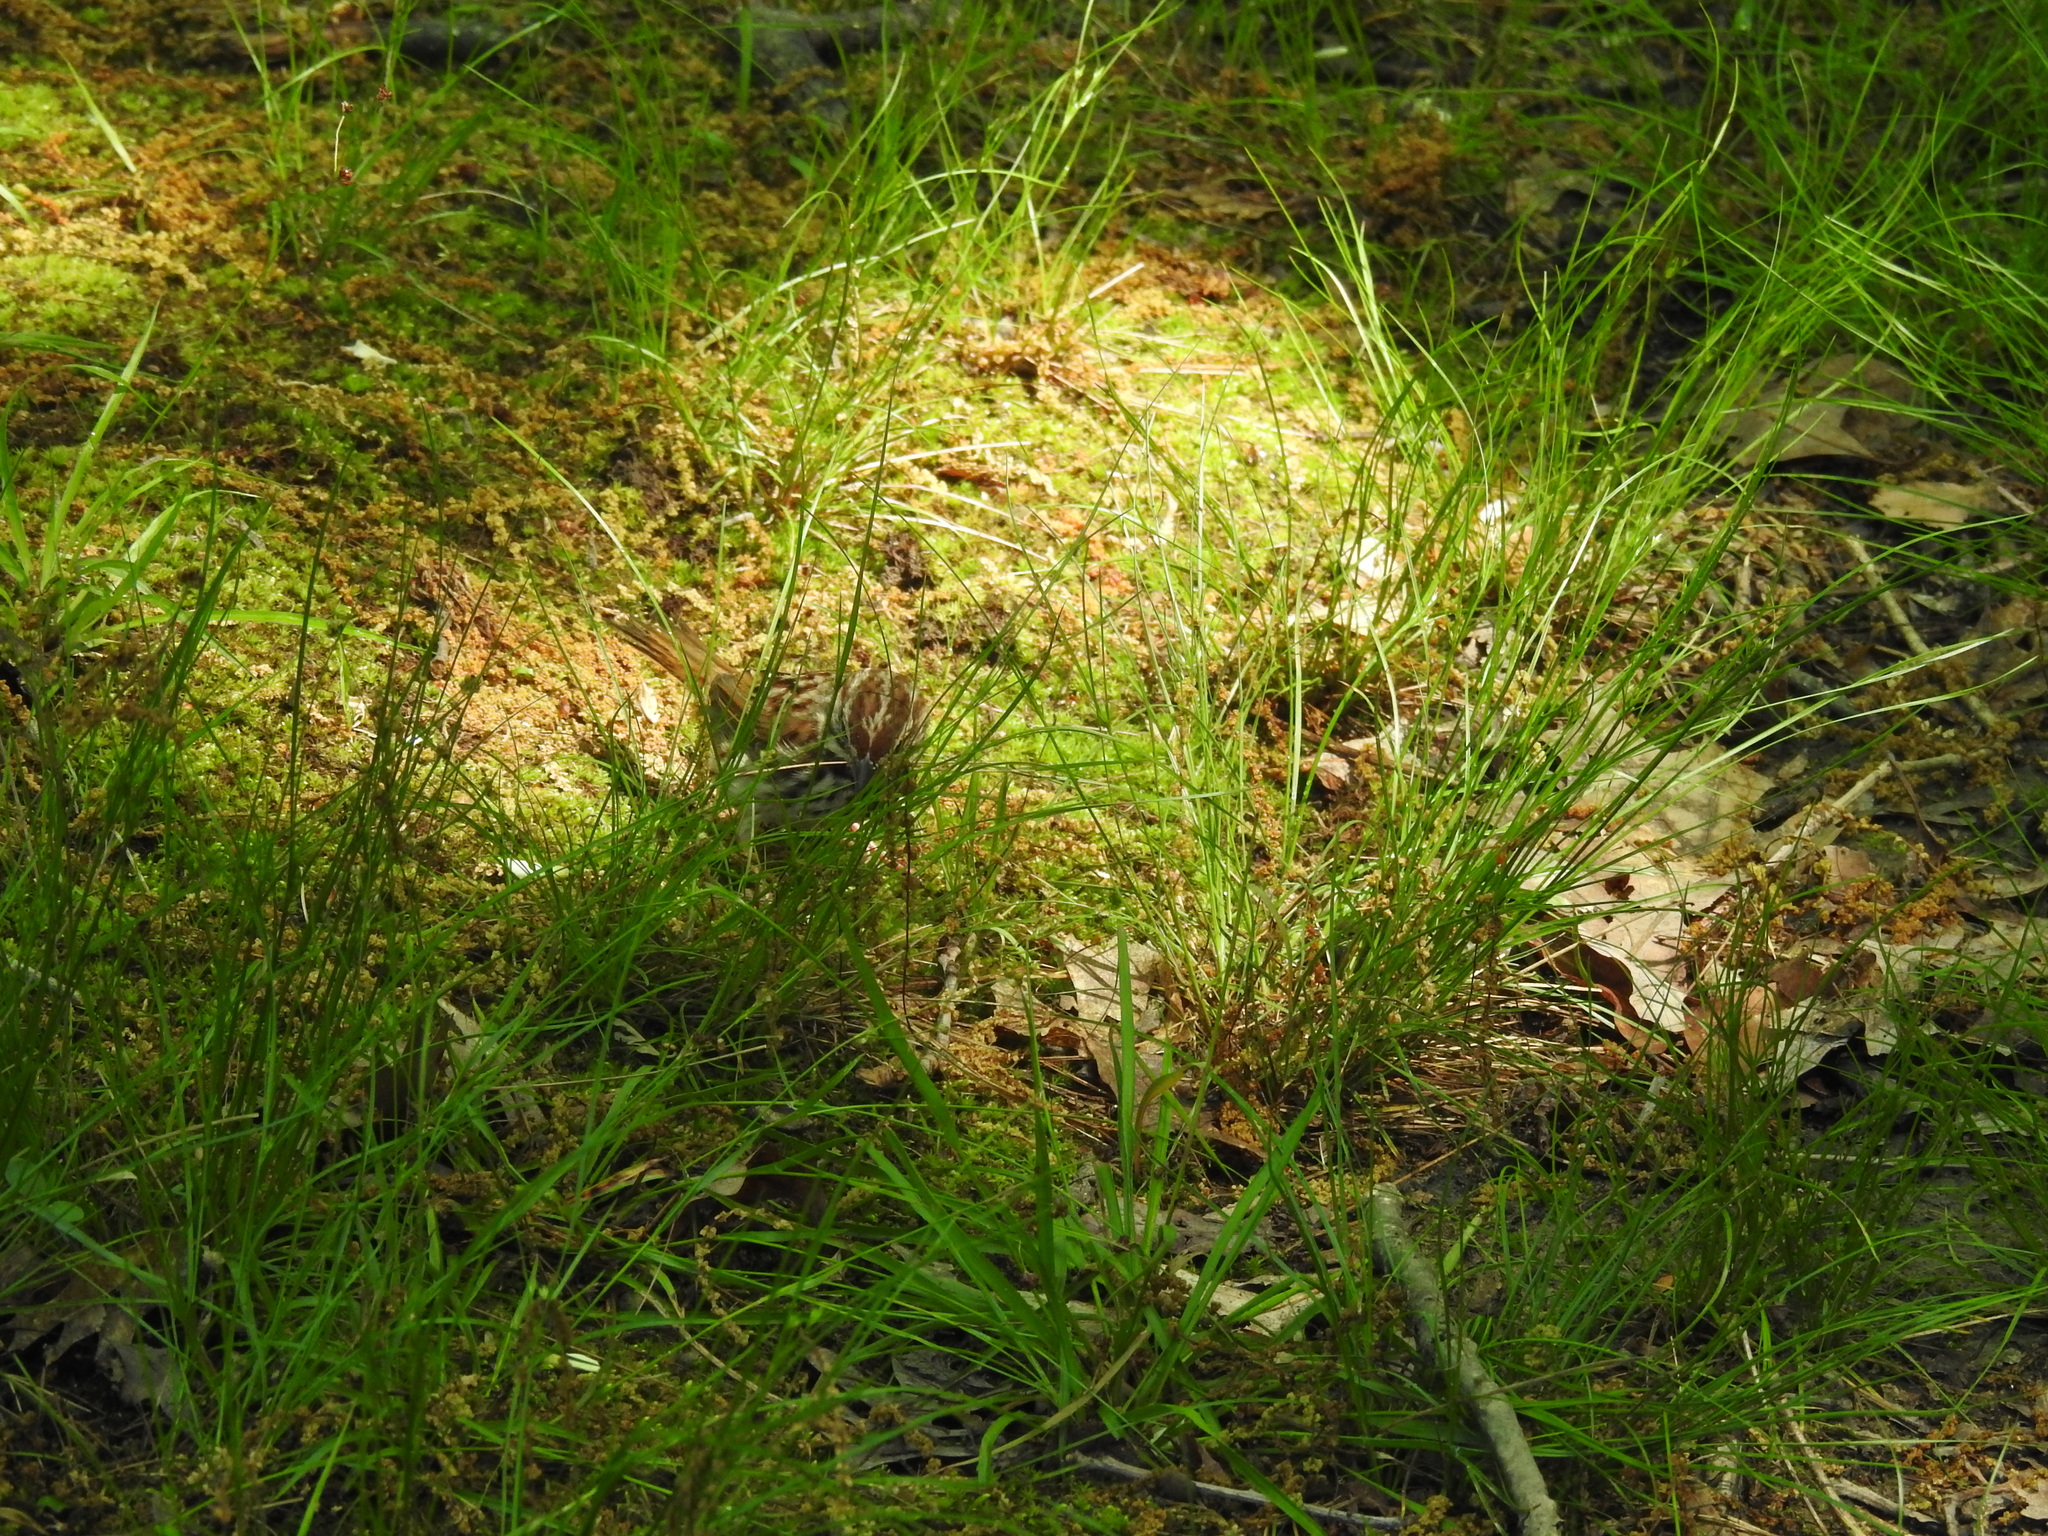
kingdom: Animalia
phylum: Chordata
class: Aves
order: Passeriformes
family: Passerellidae
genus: Melospiza
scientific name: Melospiza melodia
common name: Song sparrow
